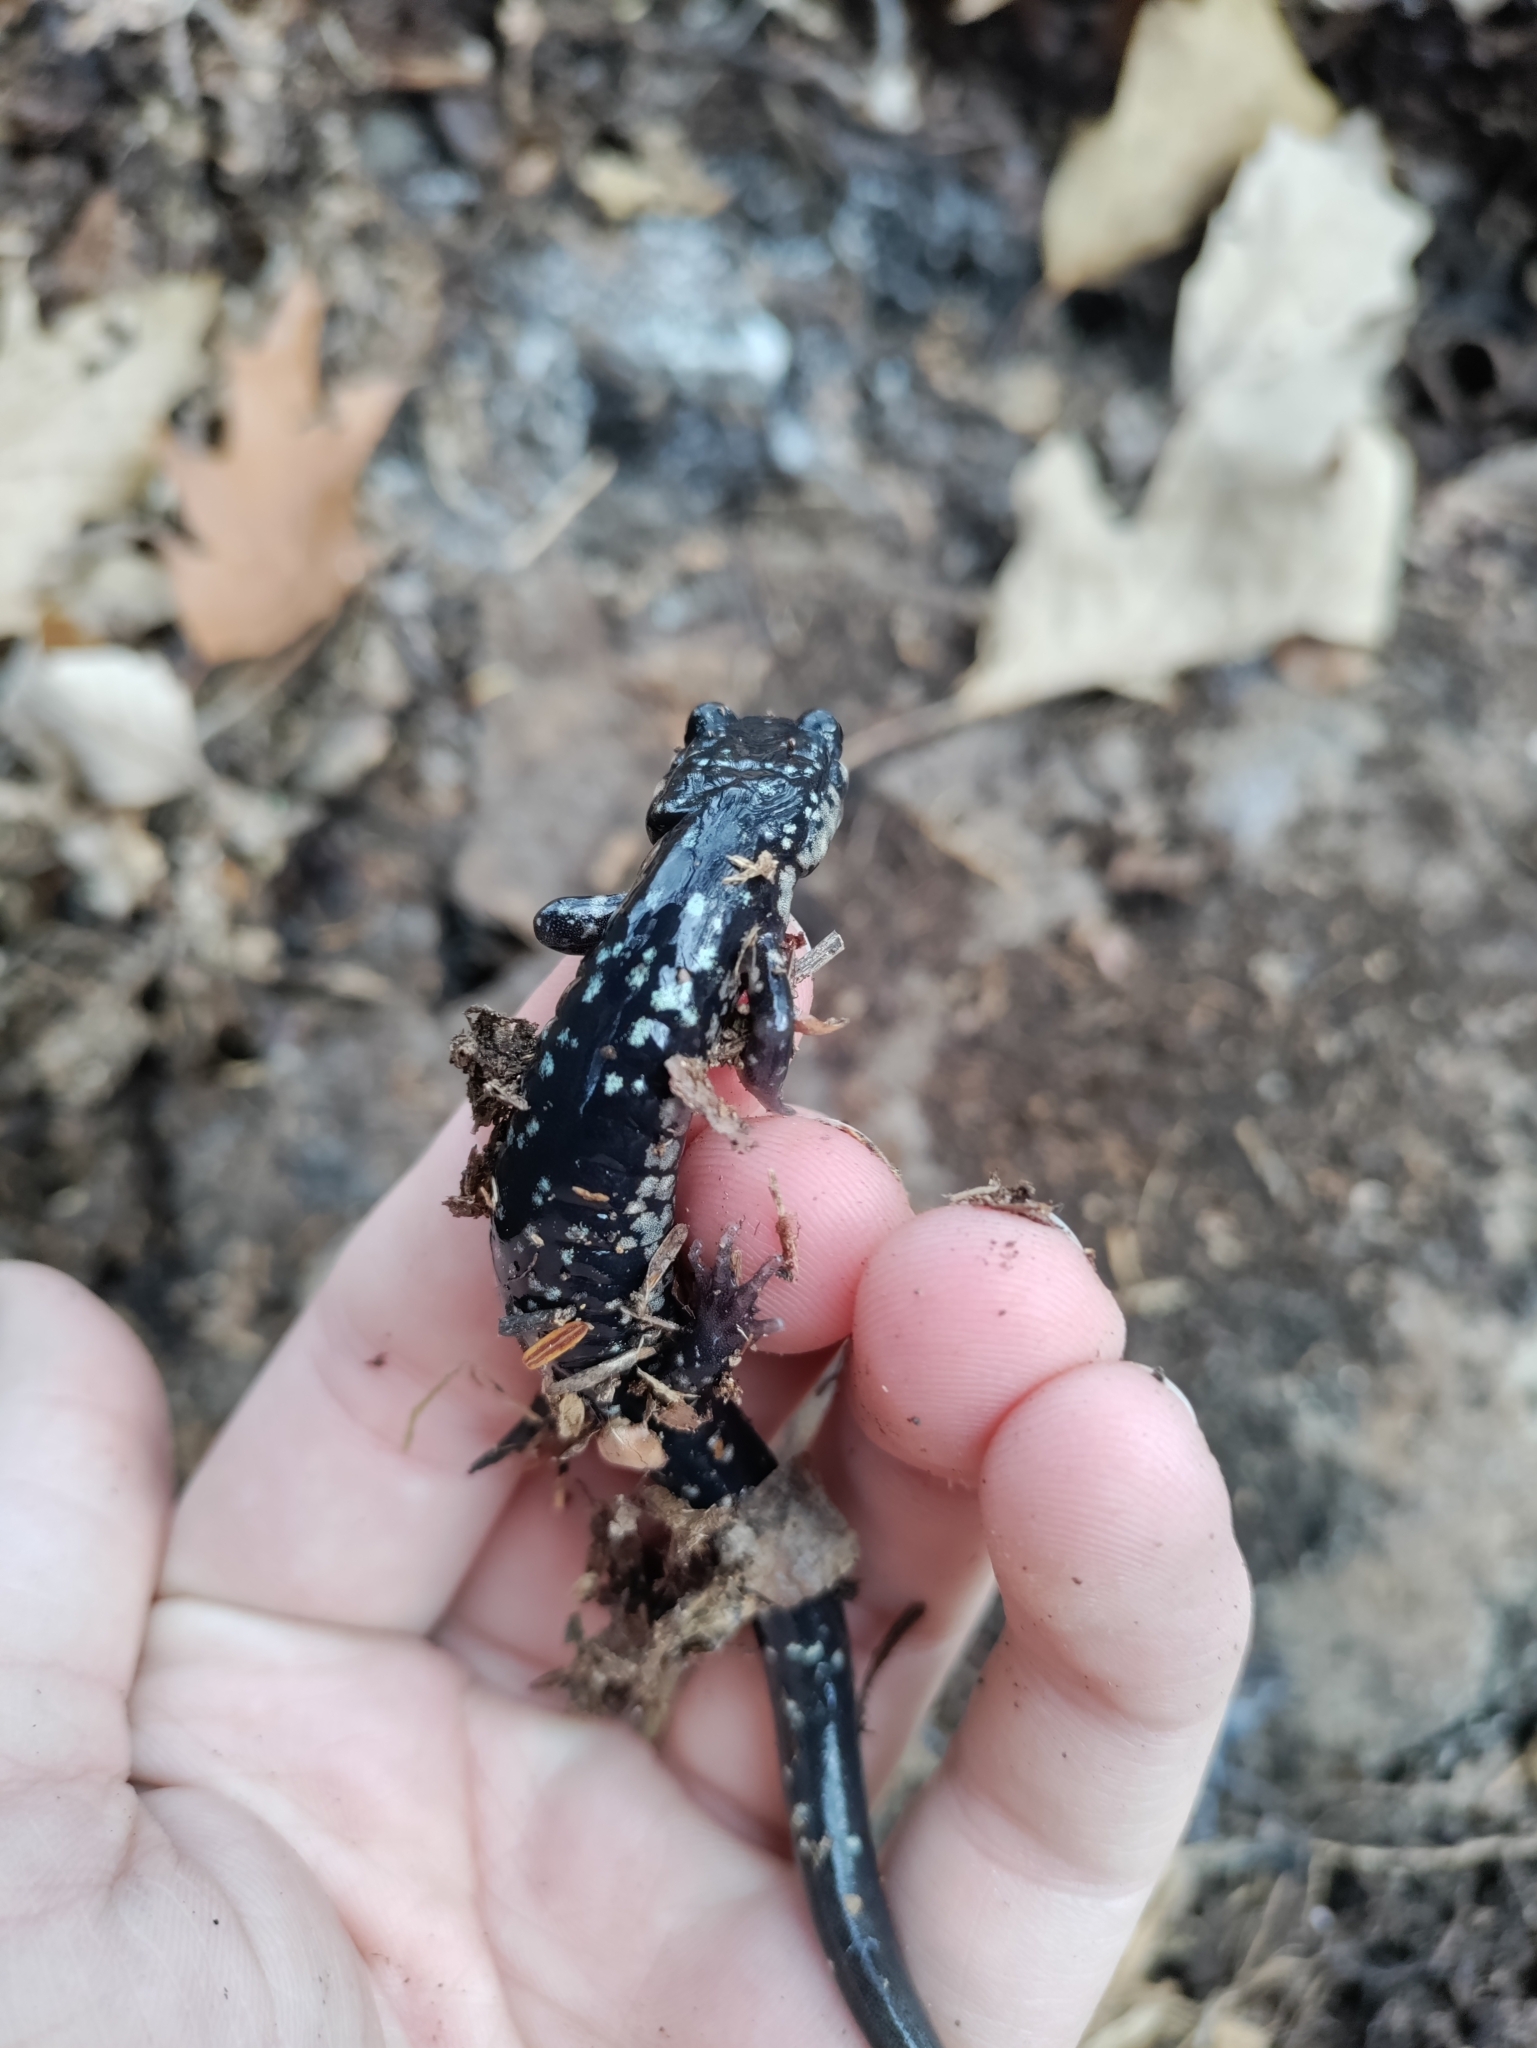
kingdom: Animalia
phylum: Chordata
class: Amphibia
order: Caudata
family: Plethodontidae
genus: Plethodon
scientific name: Plethodon glutinosus
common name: Northern slimy salamander
